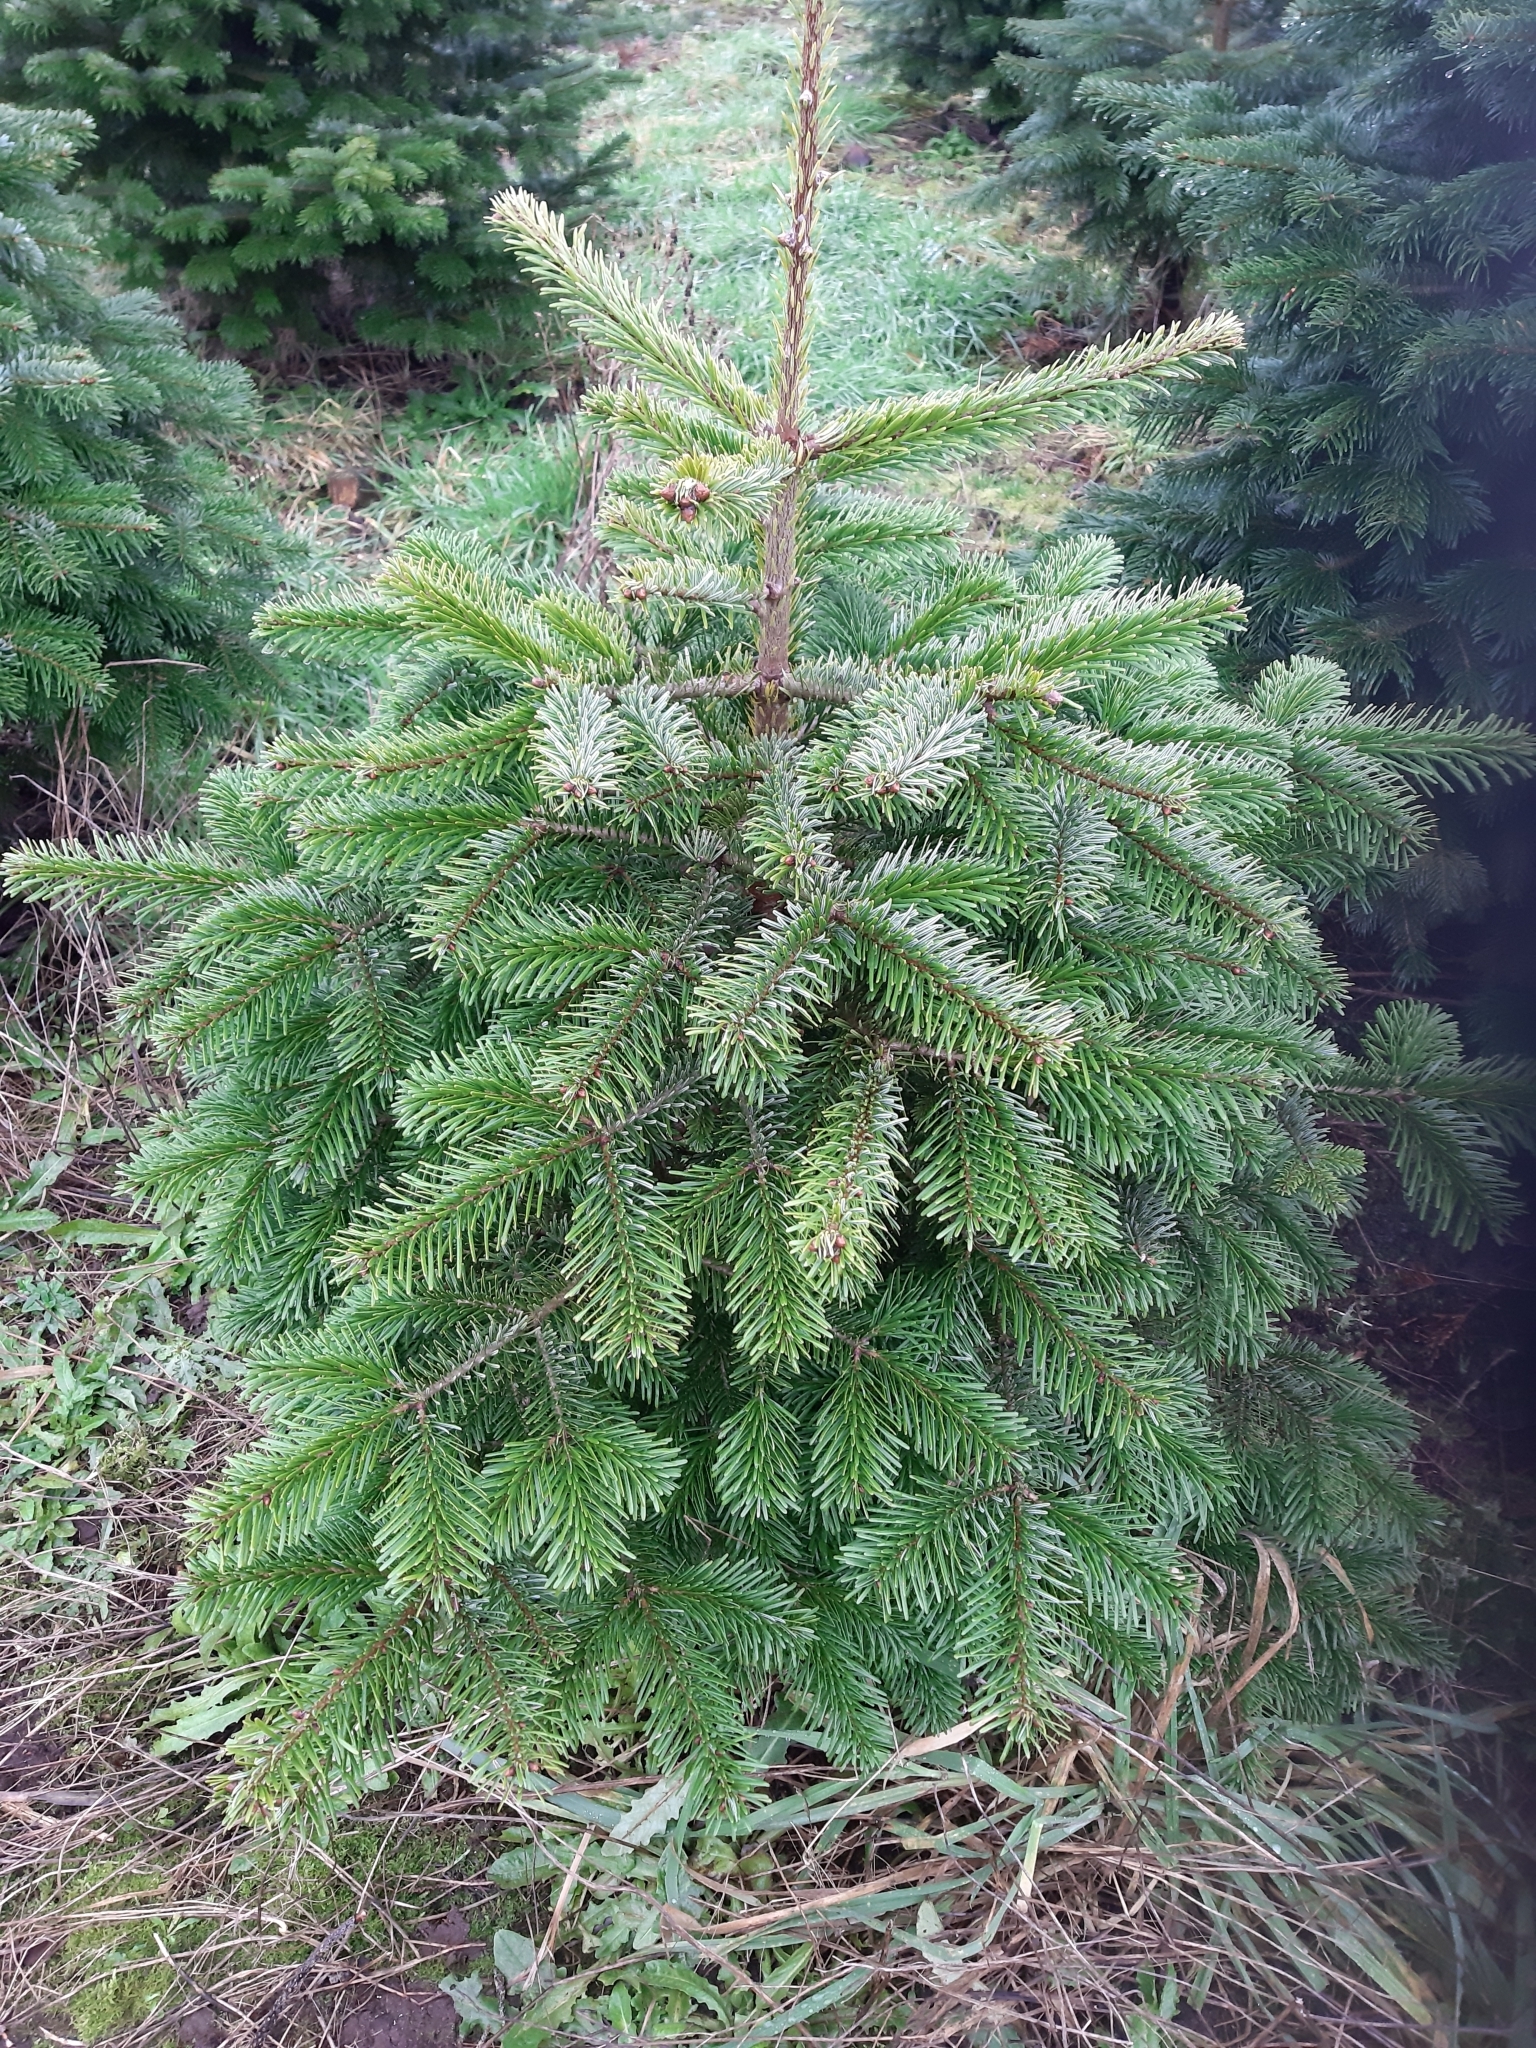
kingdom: Plantae
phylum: Tracheophyta
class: Pinopsida
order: Pinales
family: Pinaceae
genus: Abies
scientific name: Abies nordmanniana
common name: Caucasian fir
